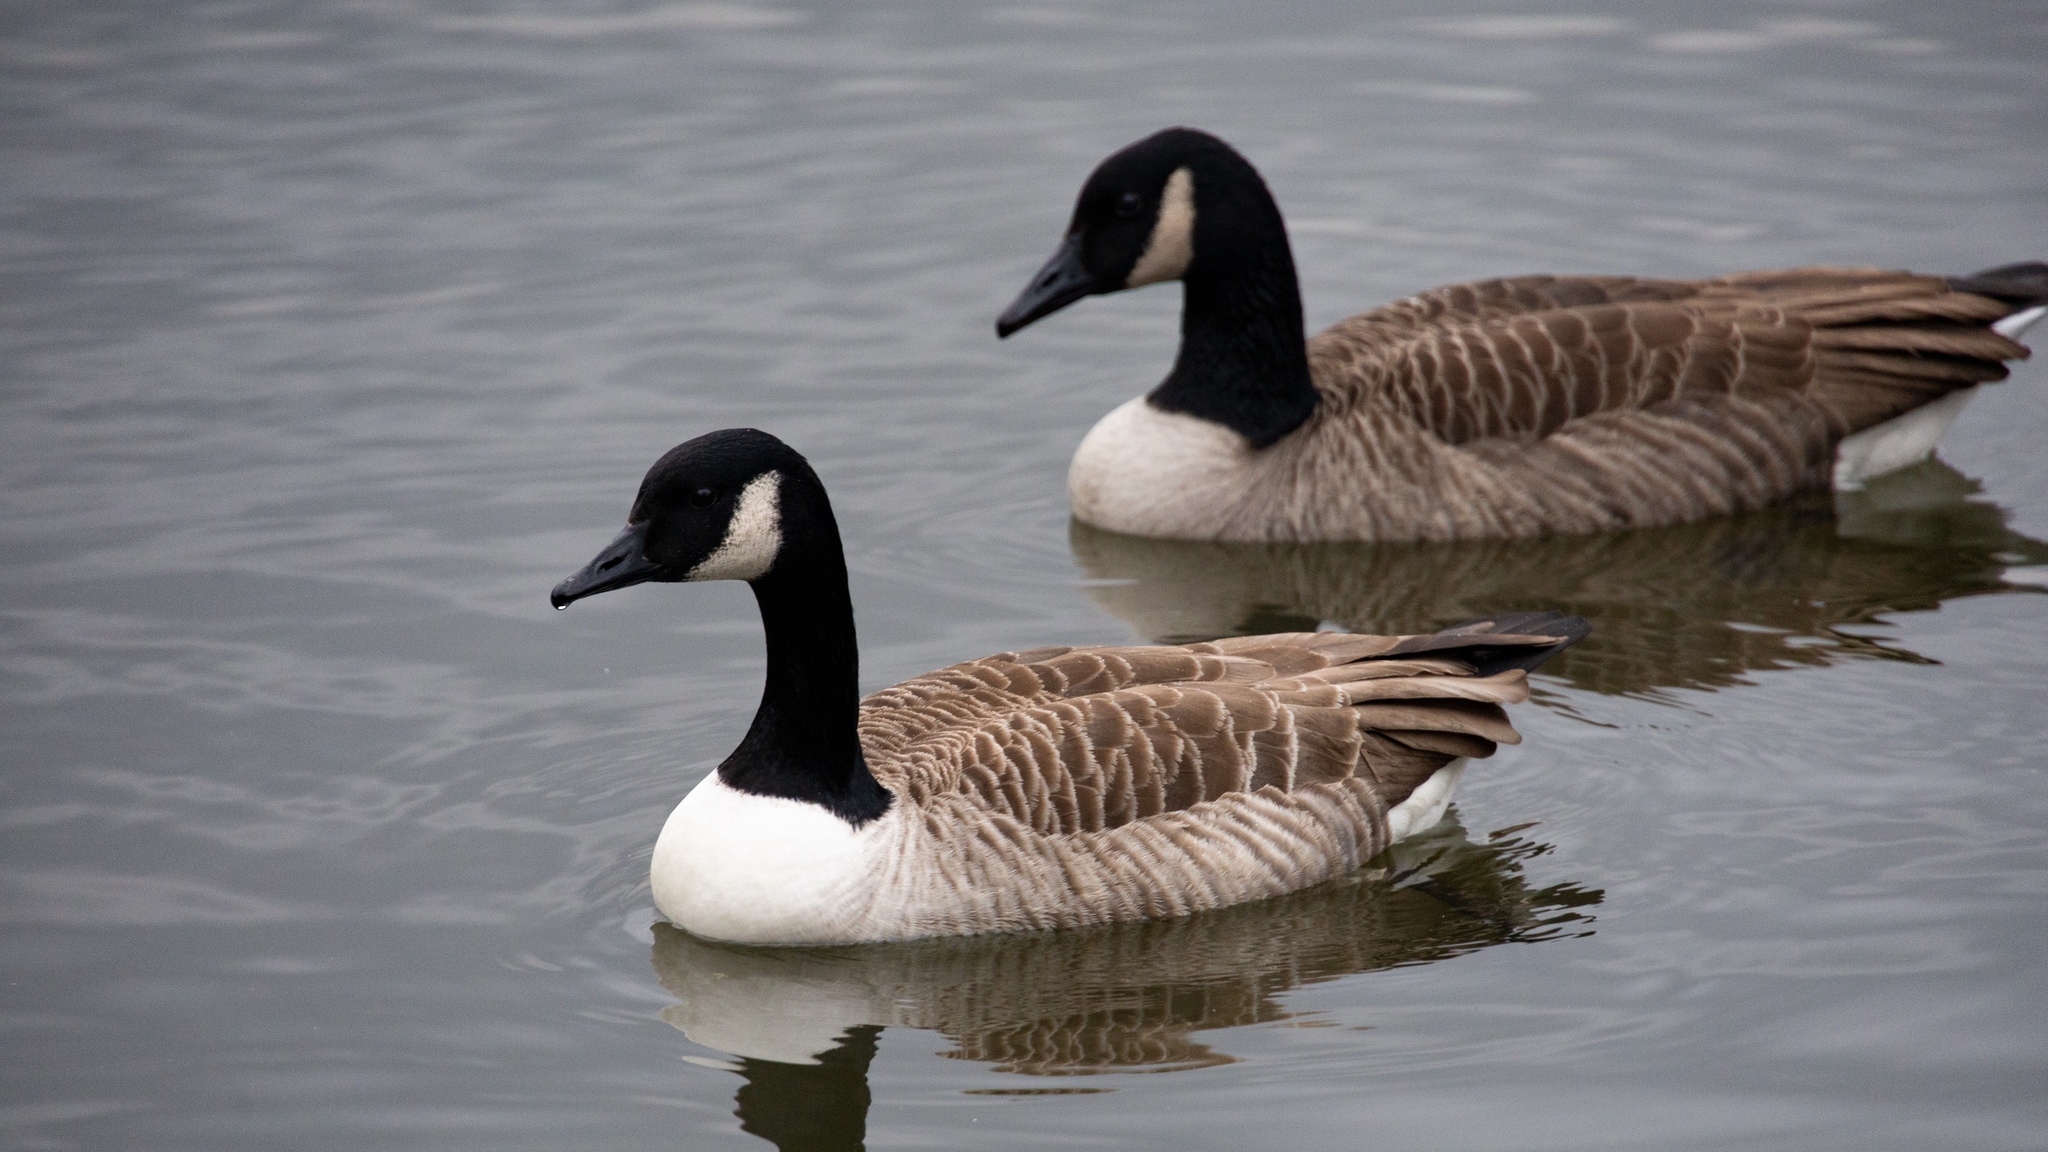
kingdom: Animalia
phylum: Chordata
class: Aves
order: Anseriformes
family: Anatidae
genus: Branta
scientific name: Branta canadensis
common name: Canada goose
